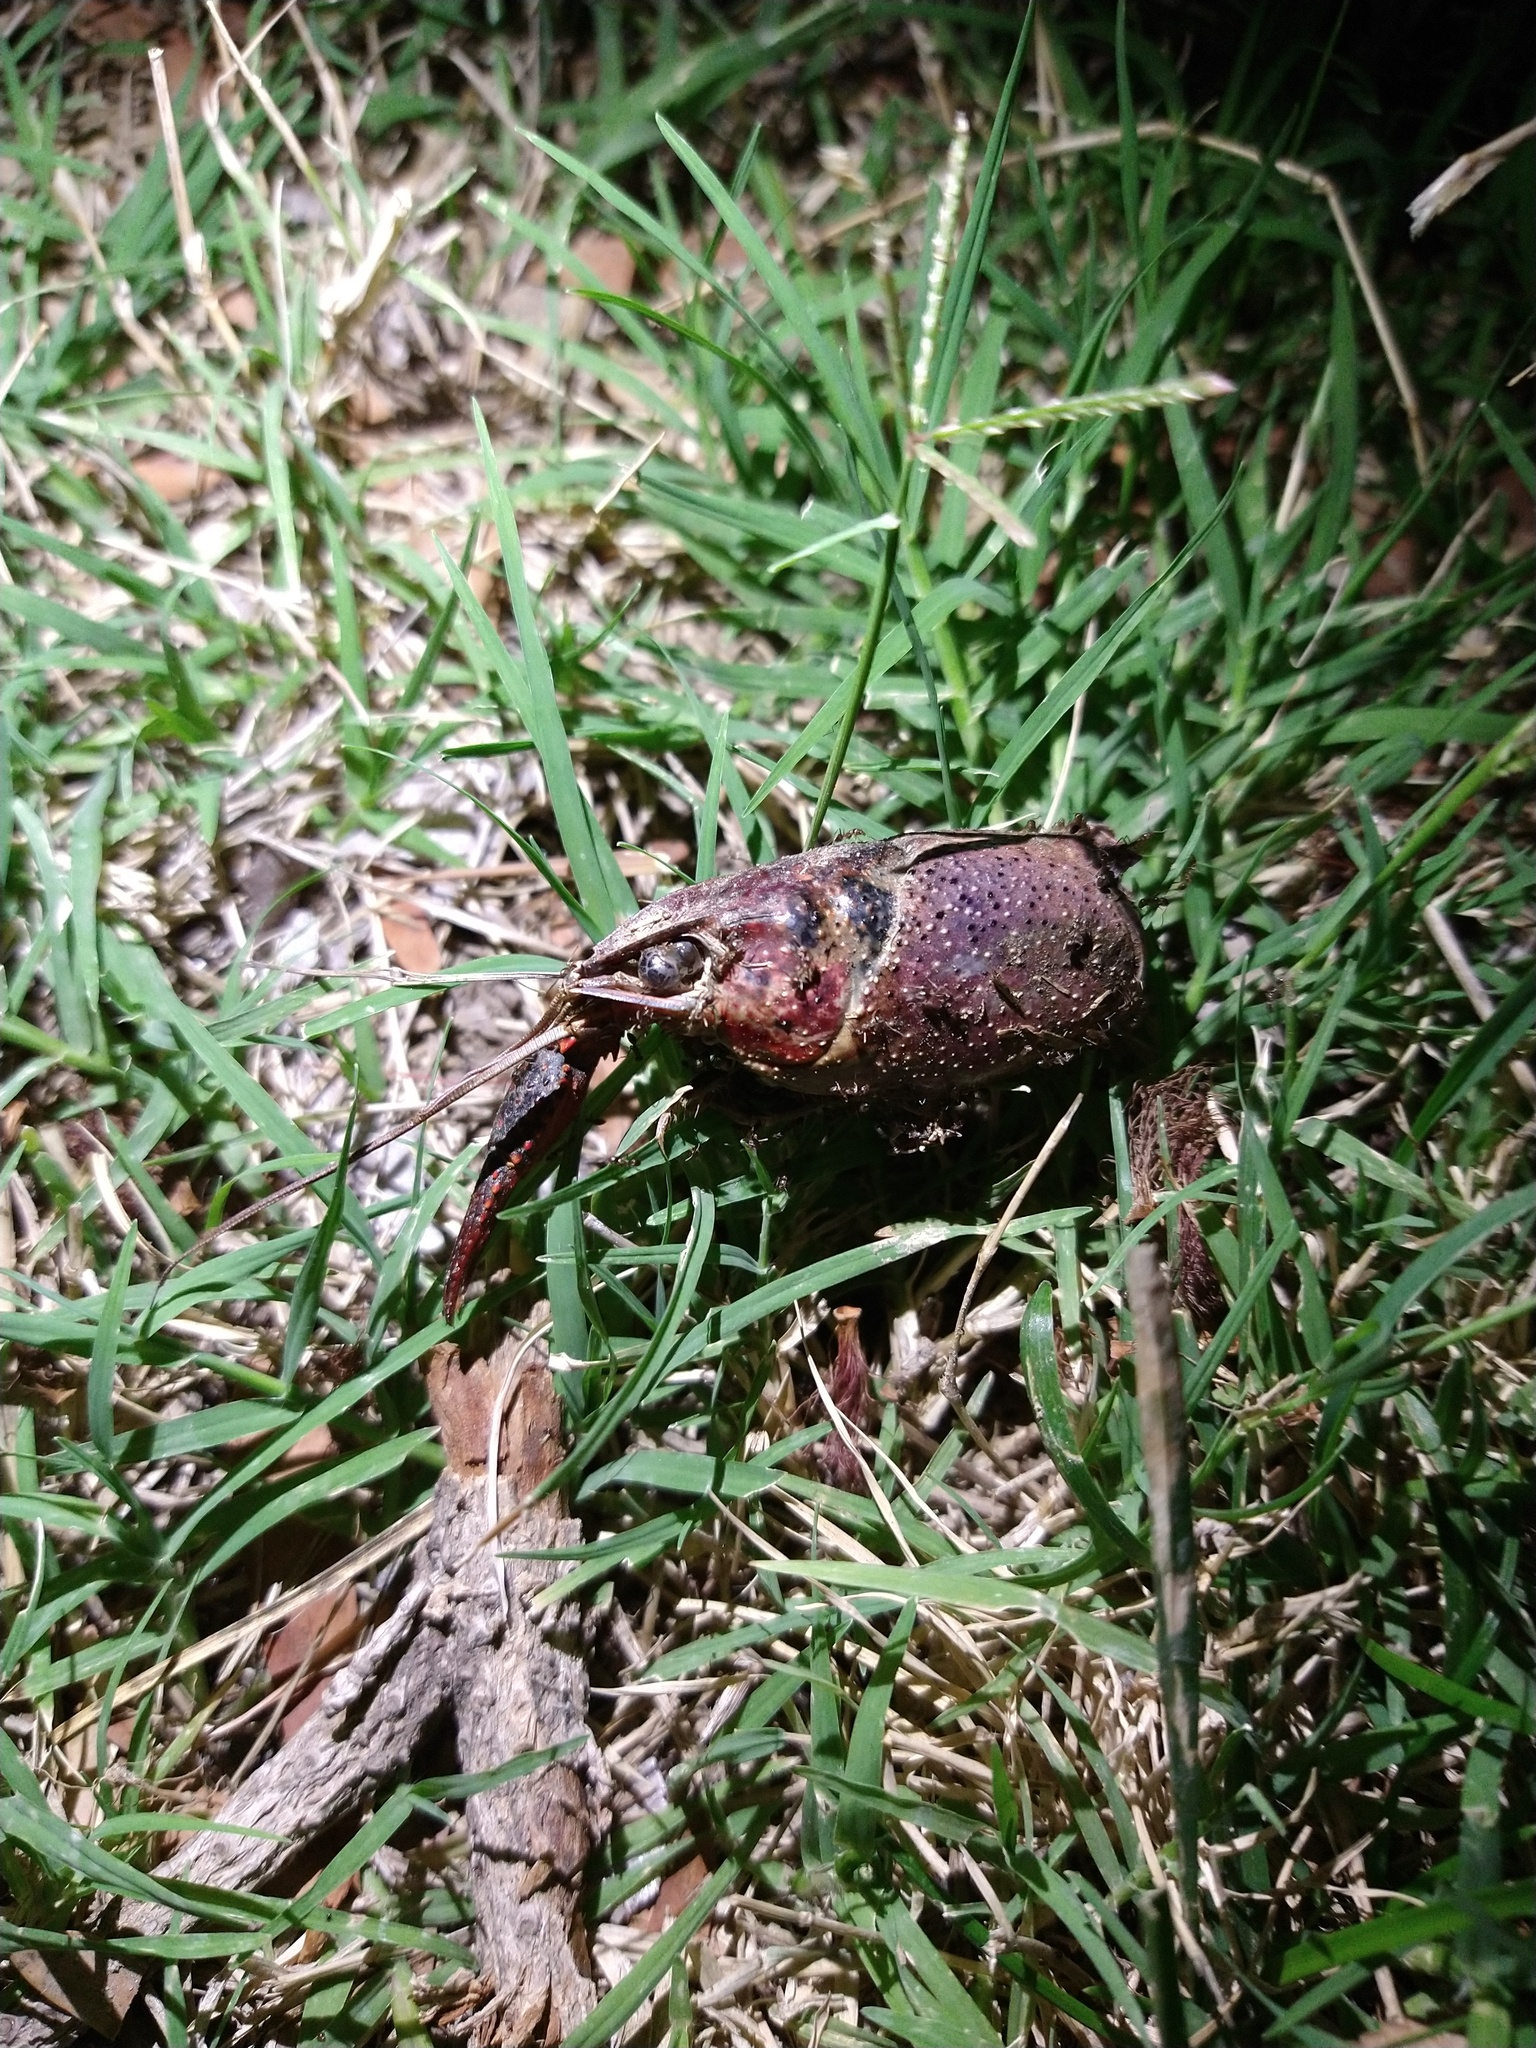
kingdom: Animalia
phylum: Arthropoda
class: Malacostraca
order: Decapoda
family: Cambaridae
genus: Procambarus
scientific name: Procambarus clarkii
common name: Red swamp crayfish
